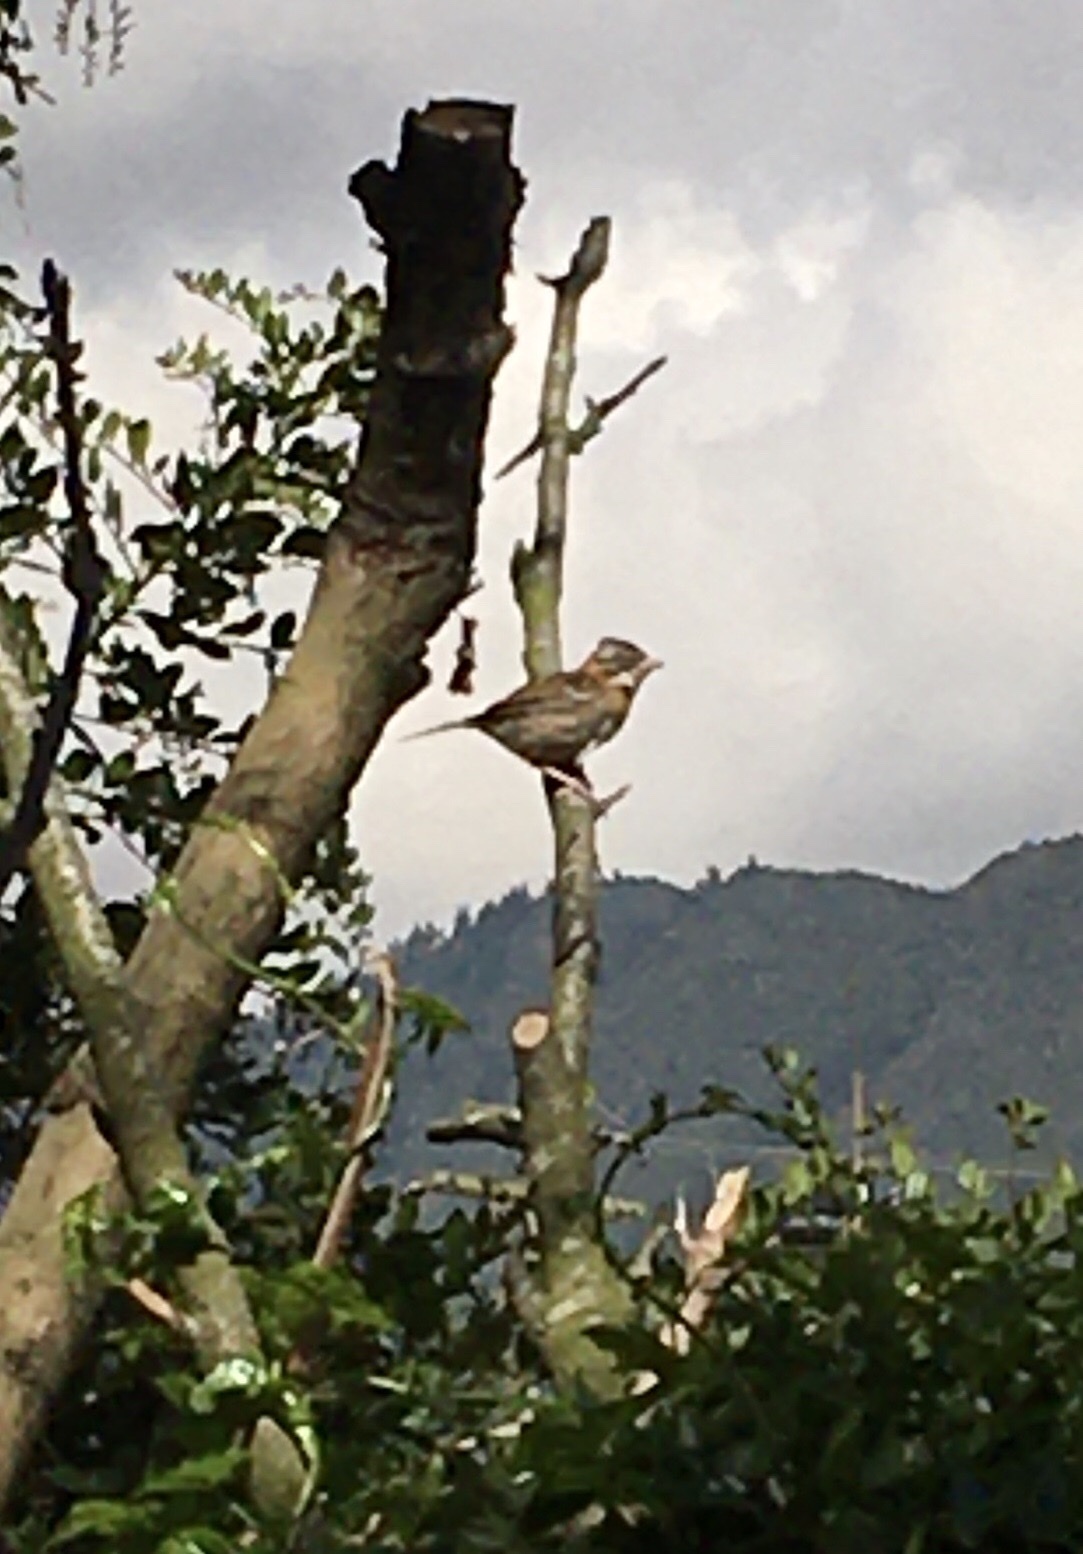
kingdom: Animalia
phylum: Chordata
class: Aves
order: Passeriformes
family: Passerellidae
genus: Zonotrichia
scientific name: Zonotrichia capensis
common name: Rufous-collared sparrow
